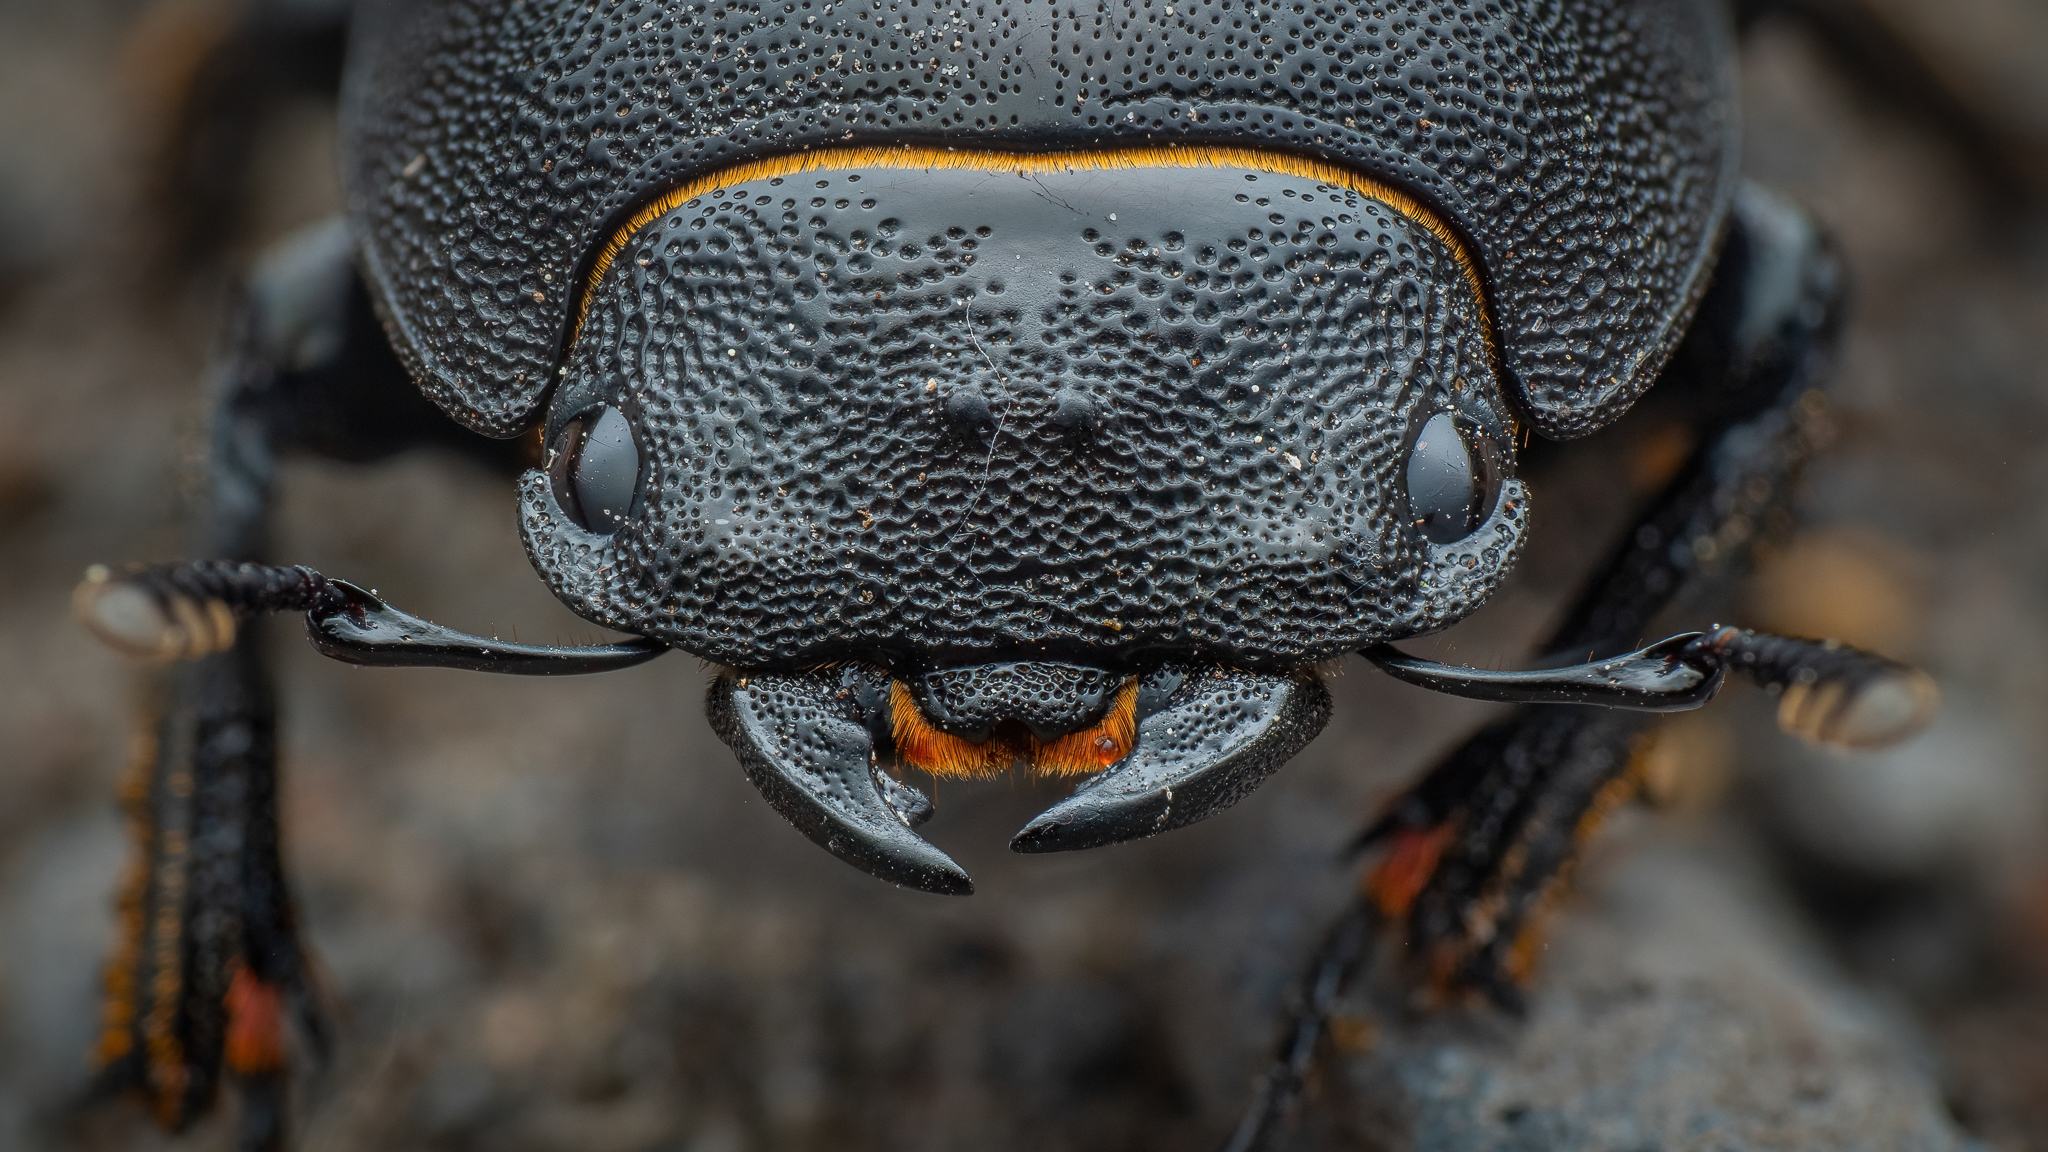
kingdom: Animalia
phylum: Arthropoda
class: Insecta
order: Coleoptera
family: Lucanidae
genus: Dorcus
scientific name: Dorcus parallelipipedus
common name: Lesser stag beetle
